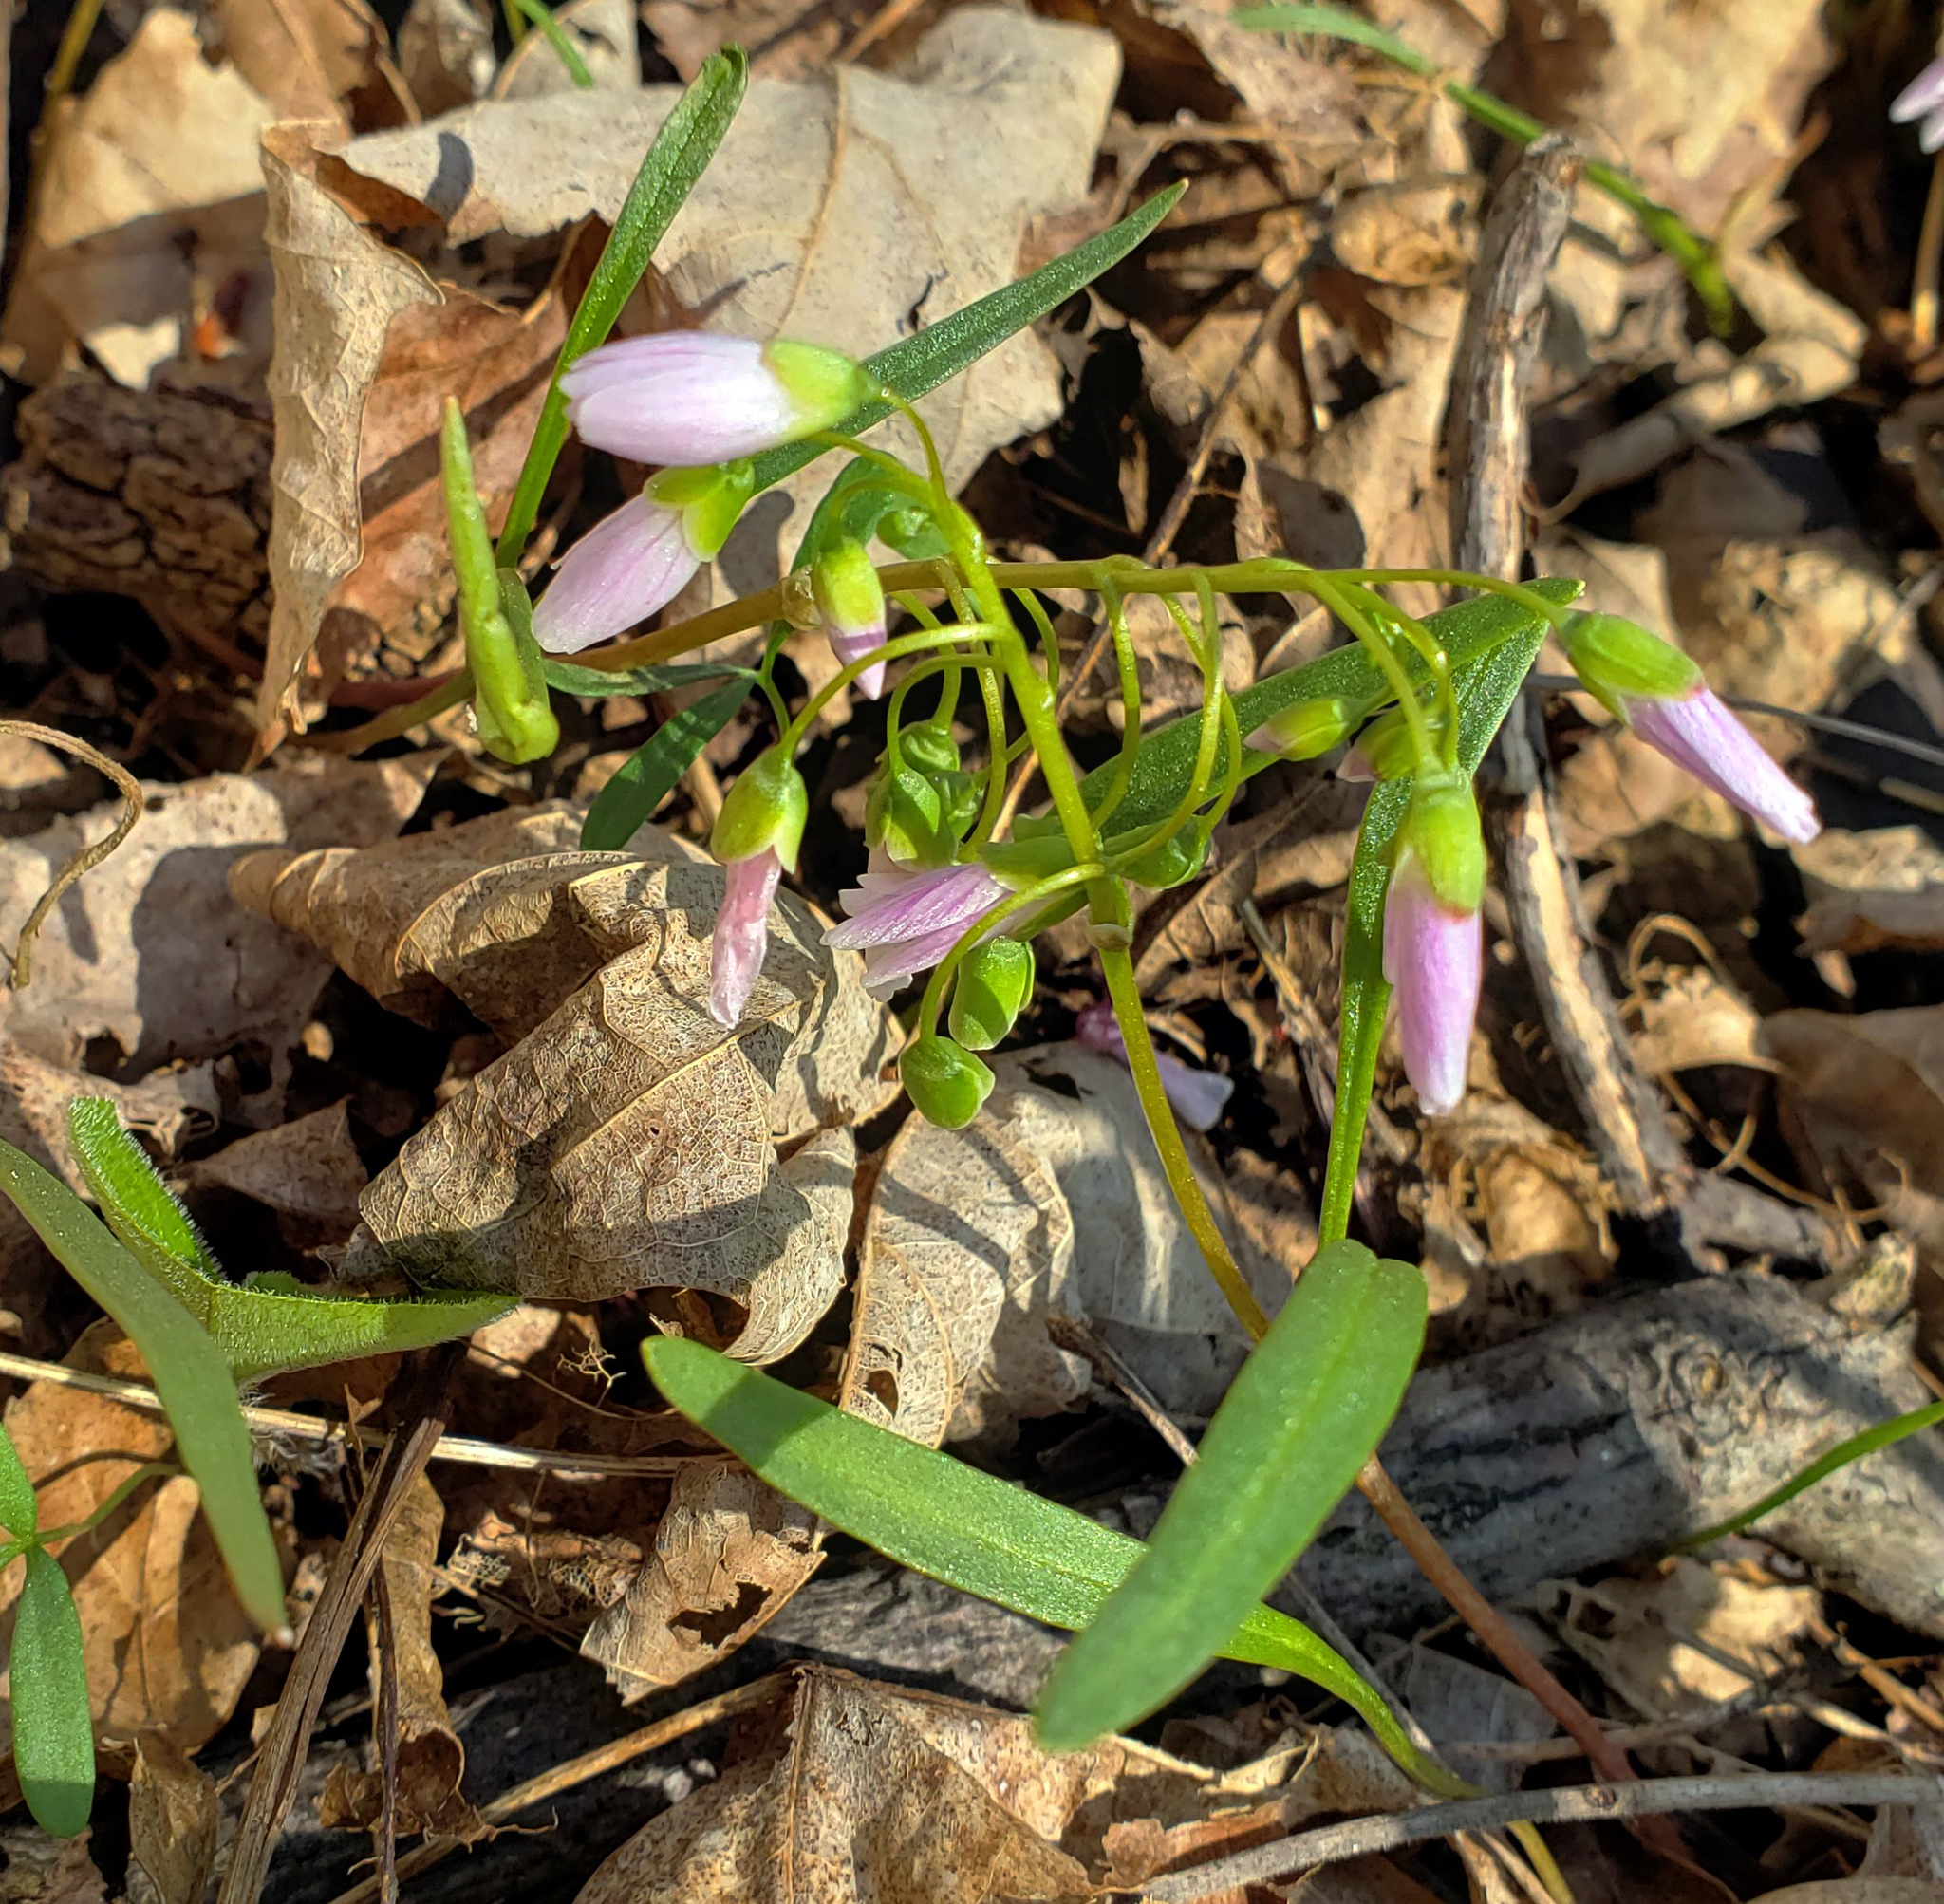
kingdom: Plantae
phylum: Tracheophyta
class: Magnoliopsida
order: Caryophyllales
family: Montiaceae
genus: Claytonia
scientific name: Claytonia virginica
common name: Virginia springbeauty
